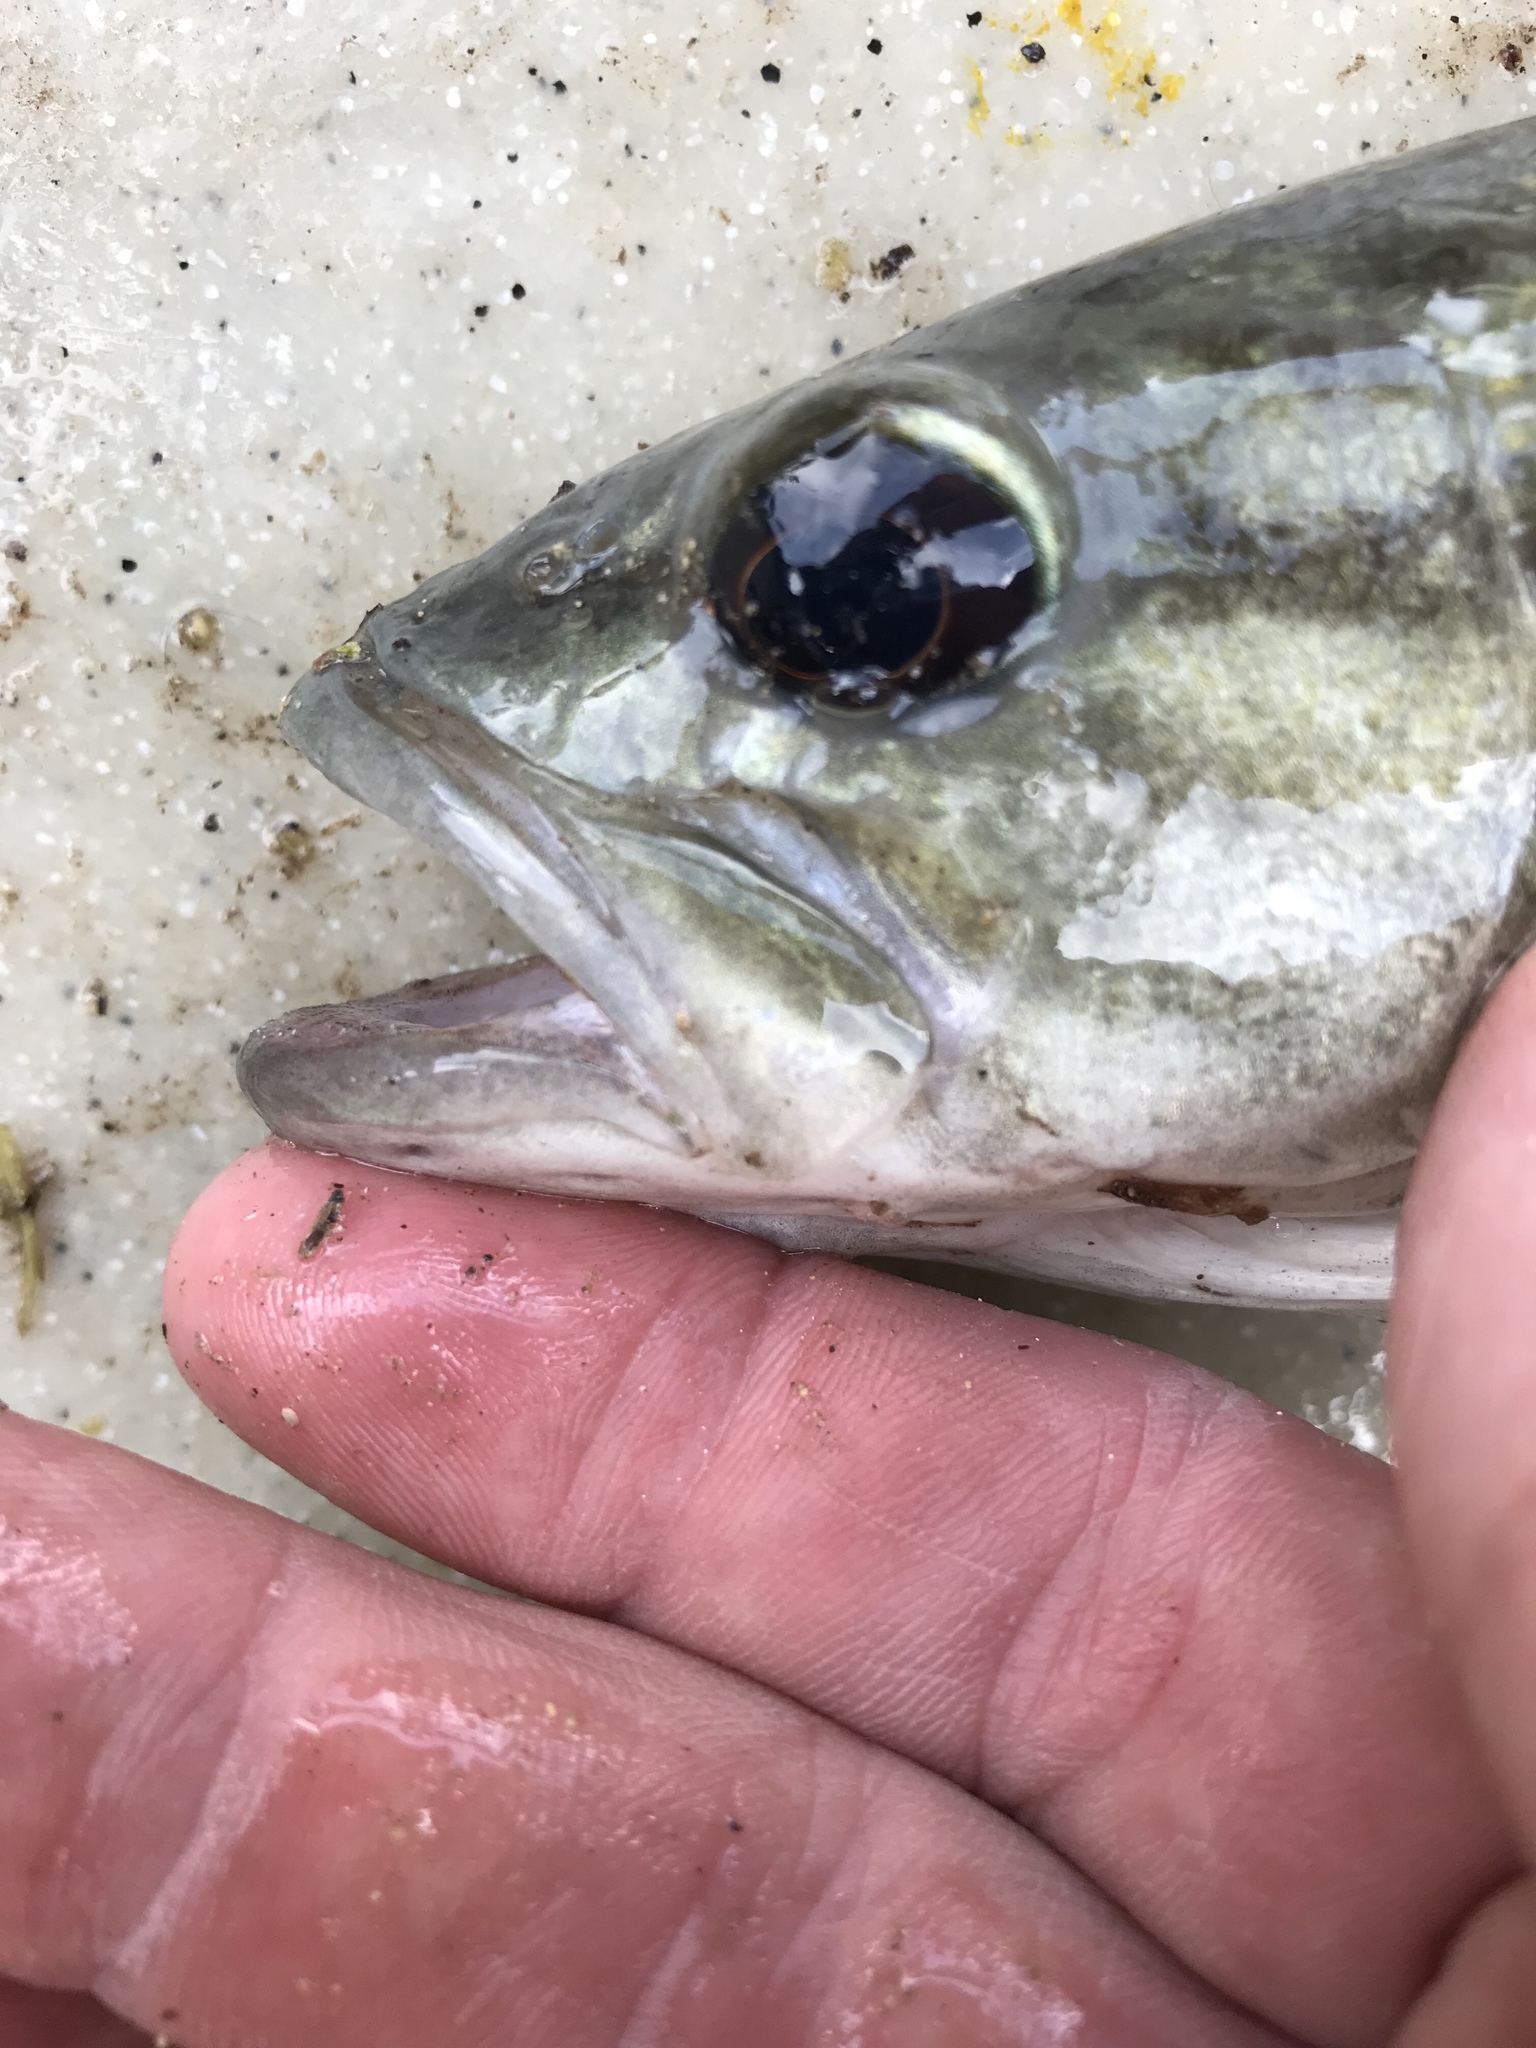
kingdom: Animalia
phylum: Chordata
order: Perciformes
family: Centrarchidae
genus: Micropterus
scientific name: Micropterus treculii
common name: Guadalupe bass
